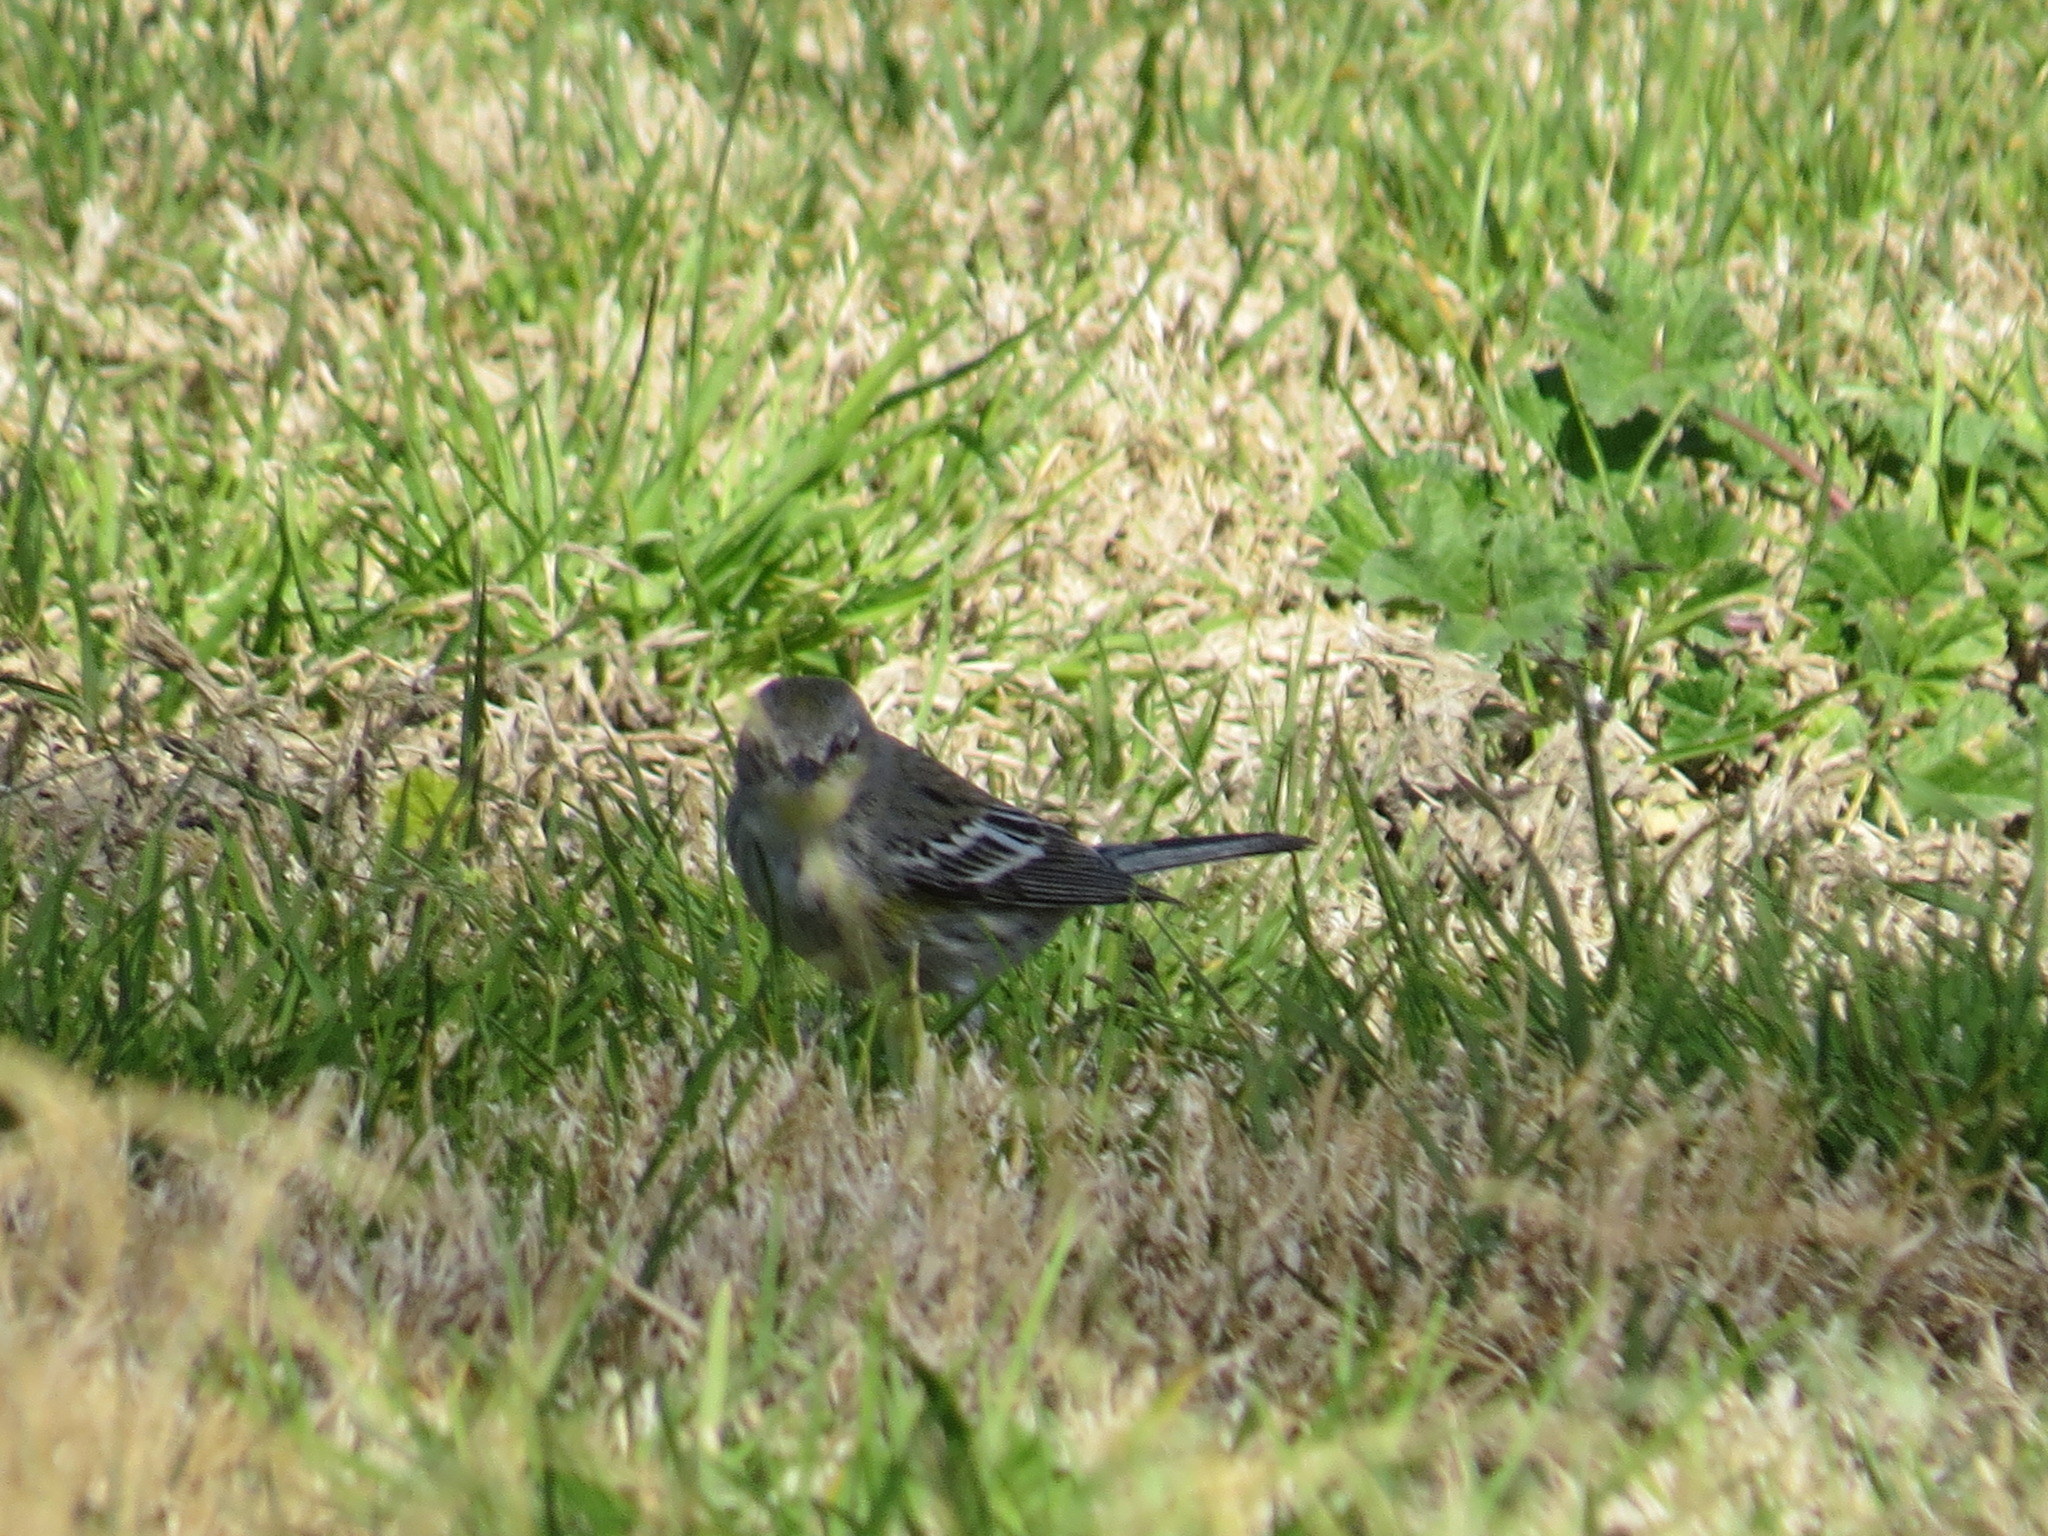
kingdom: Animalia
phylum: Chordata
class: Aves
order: Passeriformes
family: Parulidae
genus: Setophaga
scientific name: Setophaga coronata
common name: Myrtle warbler
